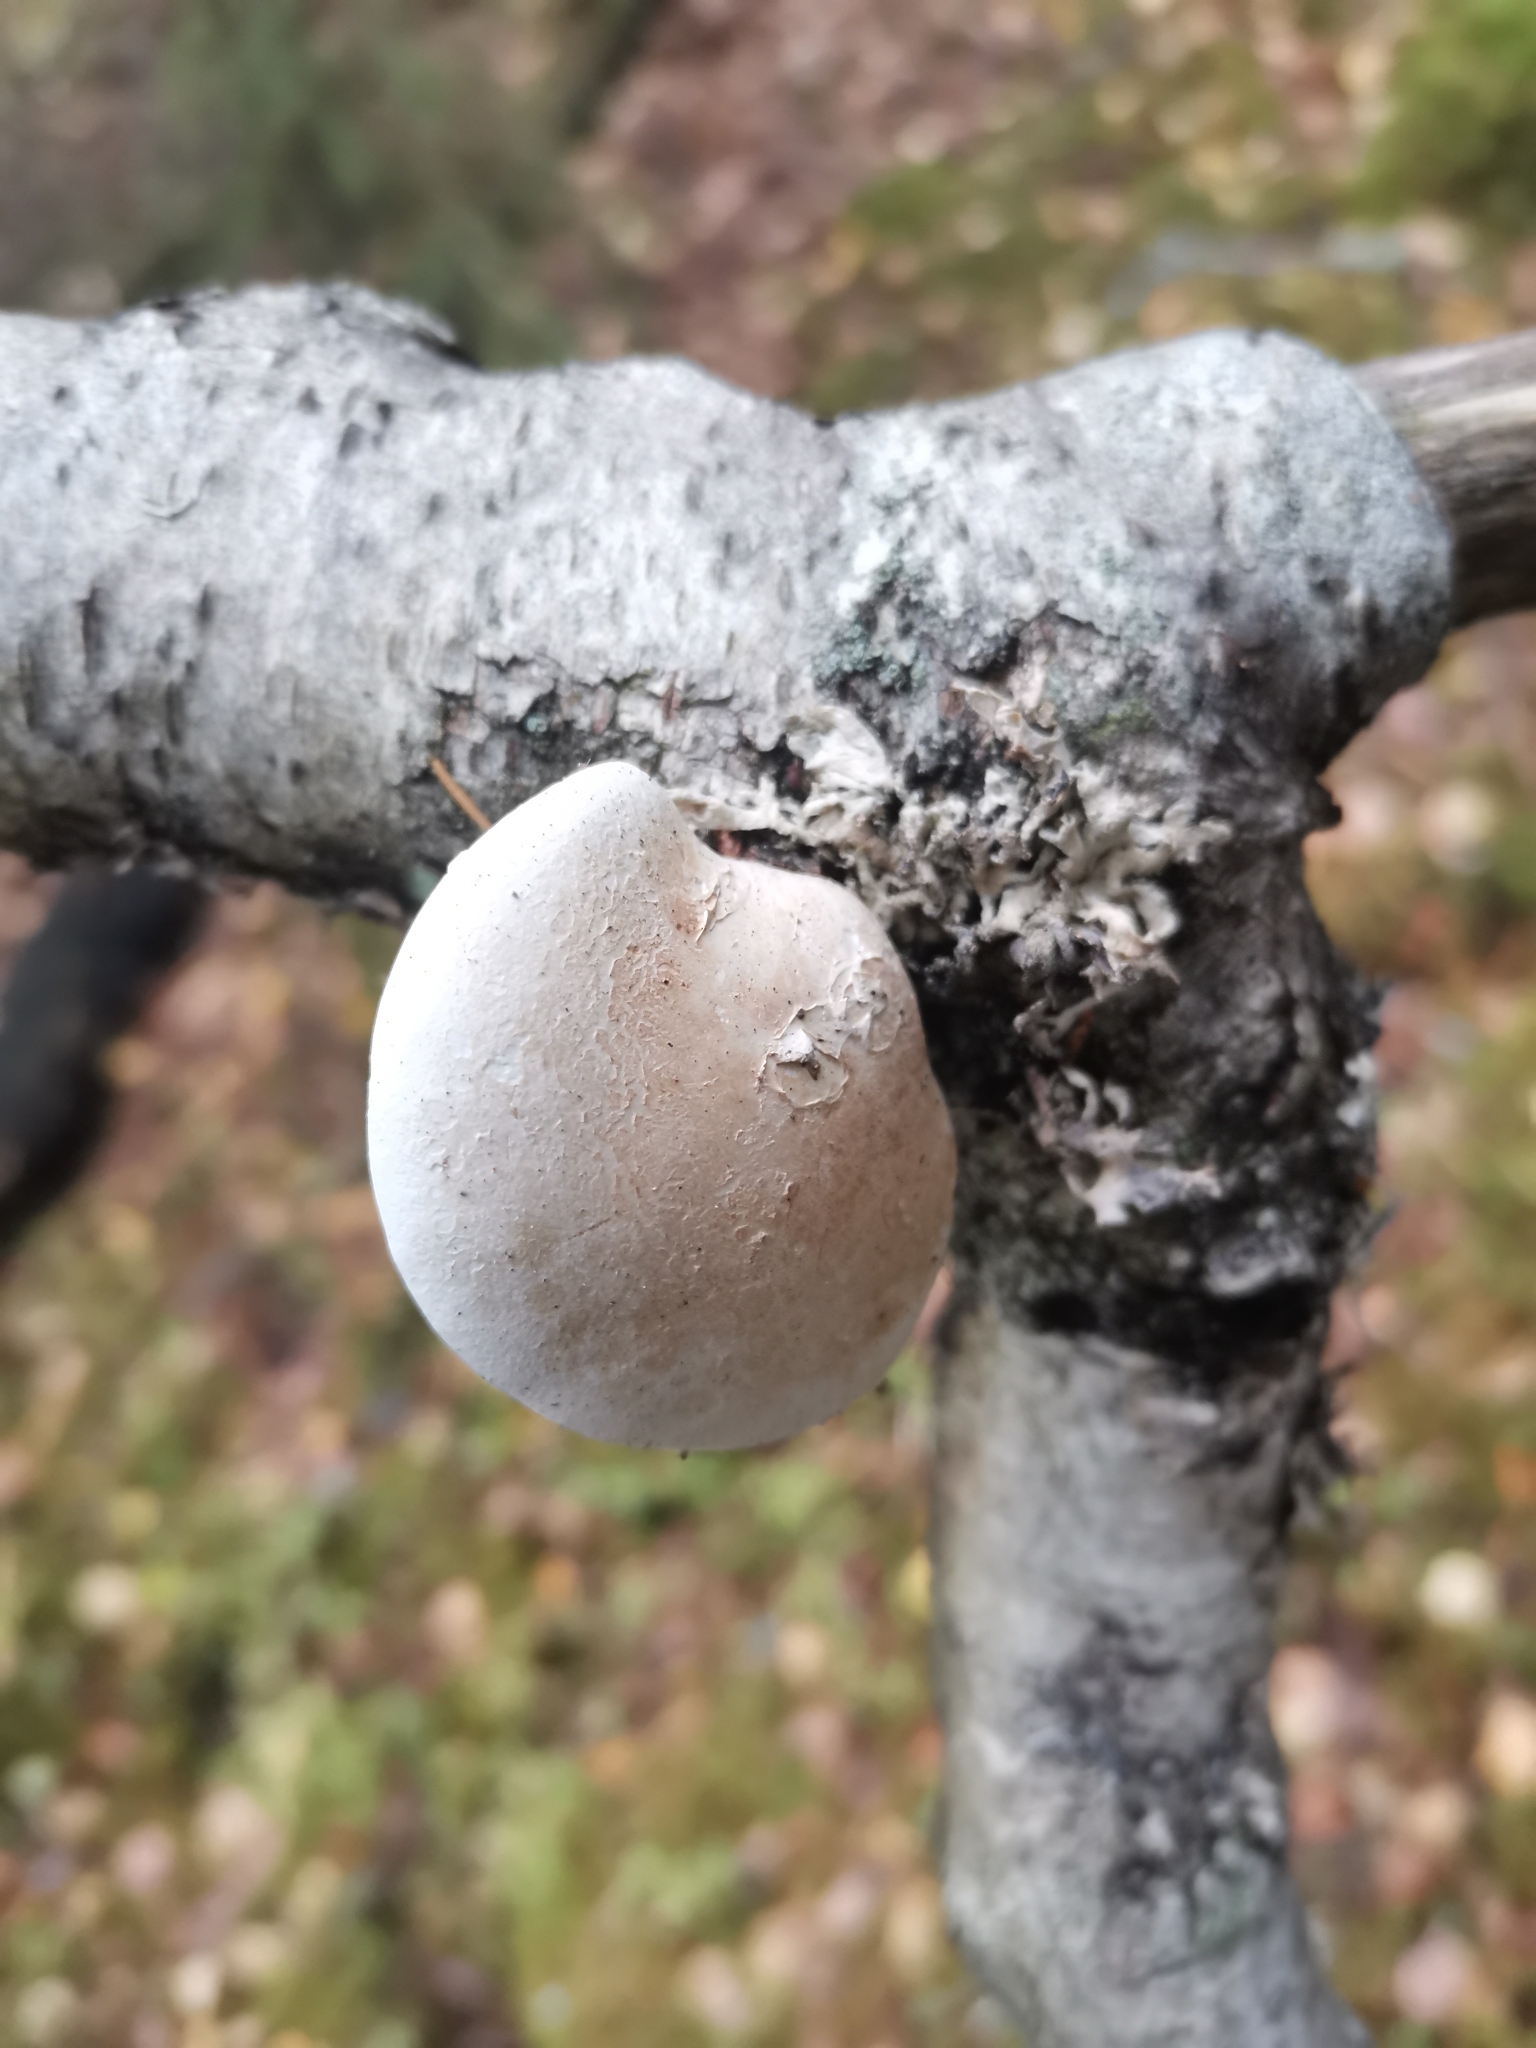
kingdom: Fungi
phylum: Basidiomycota
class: Agaricomycetes
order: Polyporales
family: Fomitopsidaceae
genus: Fomitopsis
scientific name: Fomitopsis betulina
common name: Birch polypore
